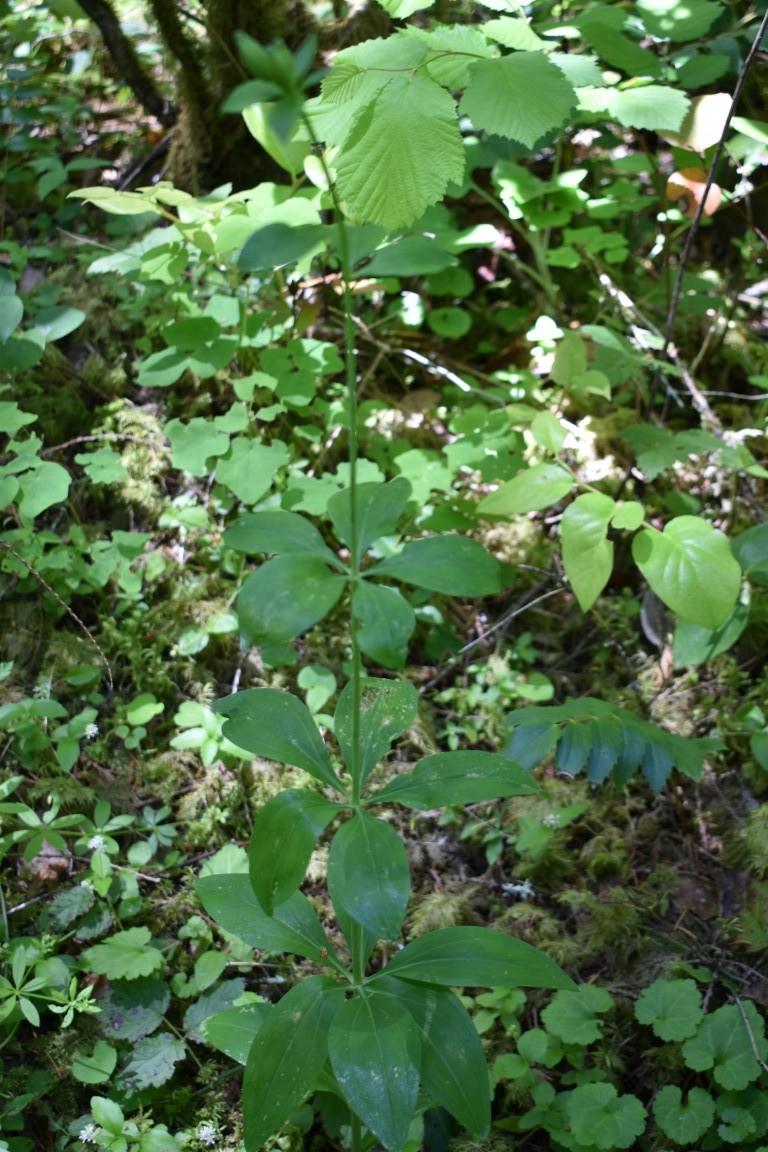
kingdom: Plantae
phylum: Tracheophyta
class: Liliopsida
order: Liliales
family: Liliaceae
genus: Lilium
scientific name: Lilium columbianum
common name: Columbia lily
